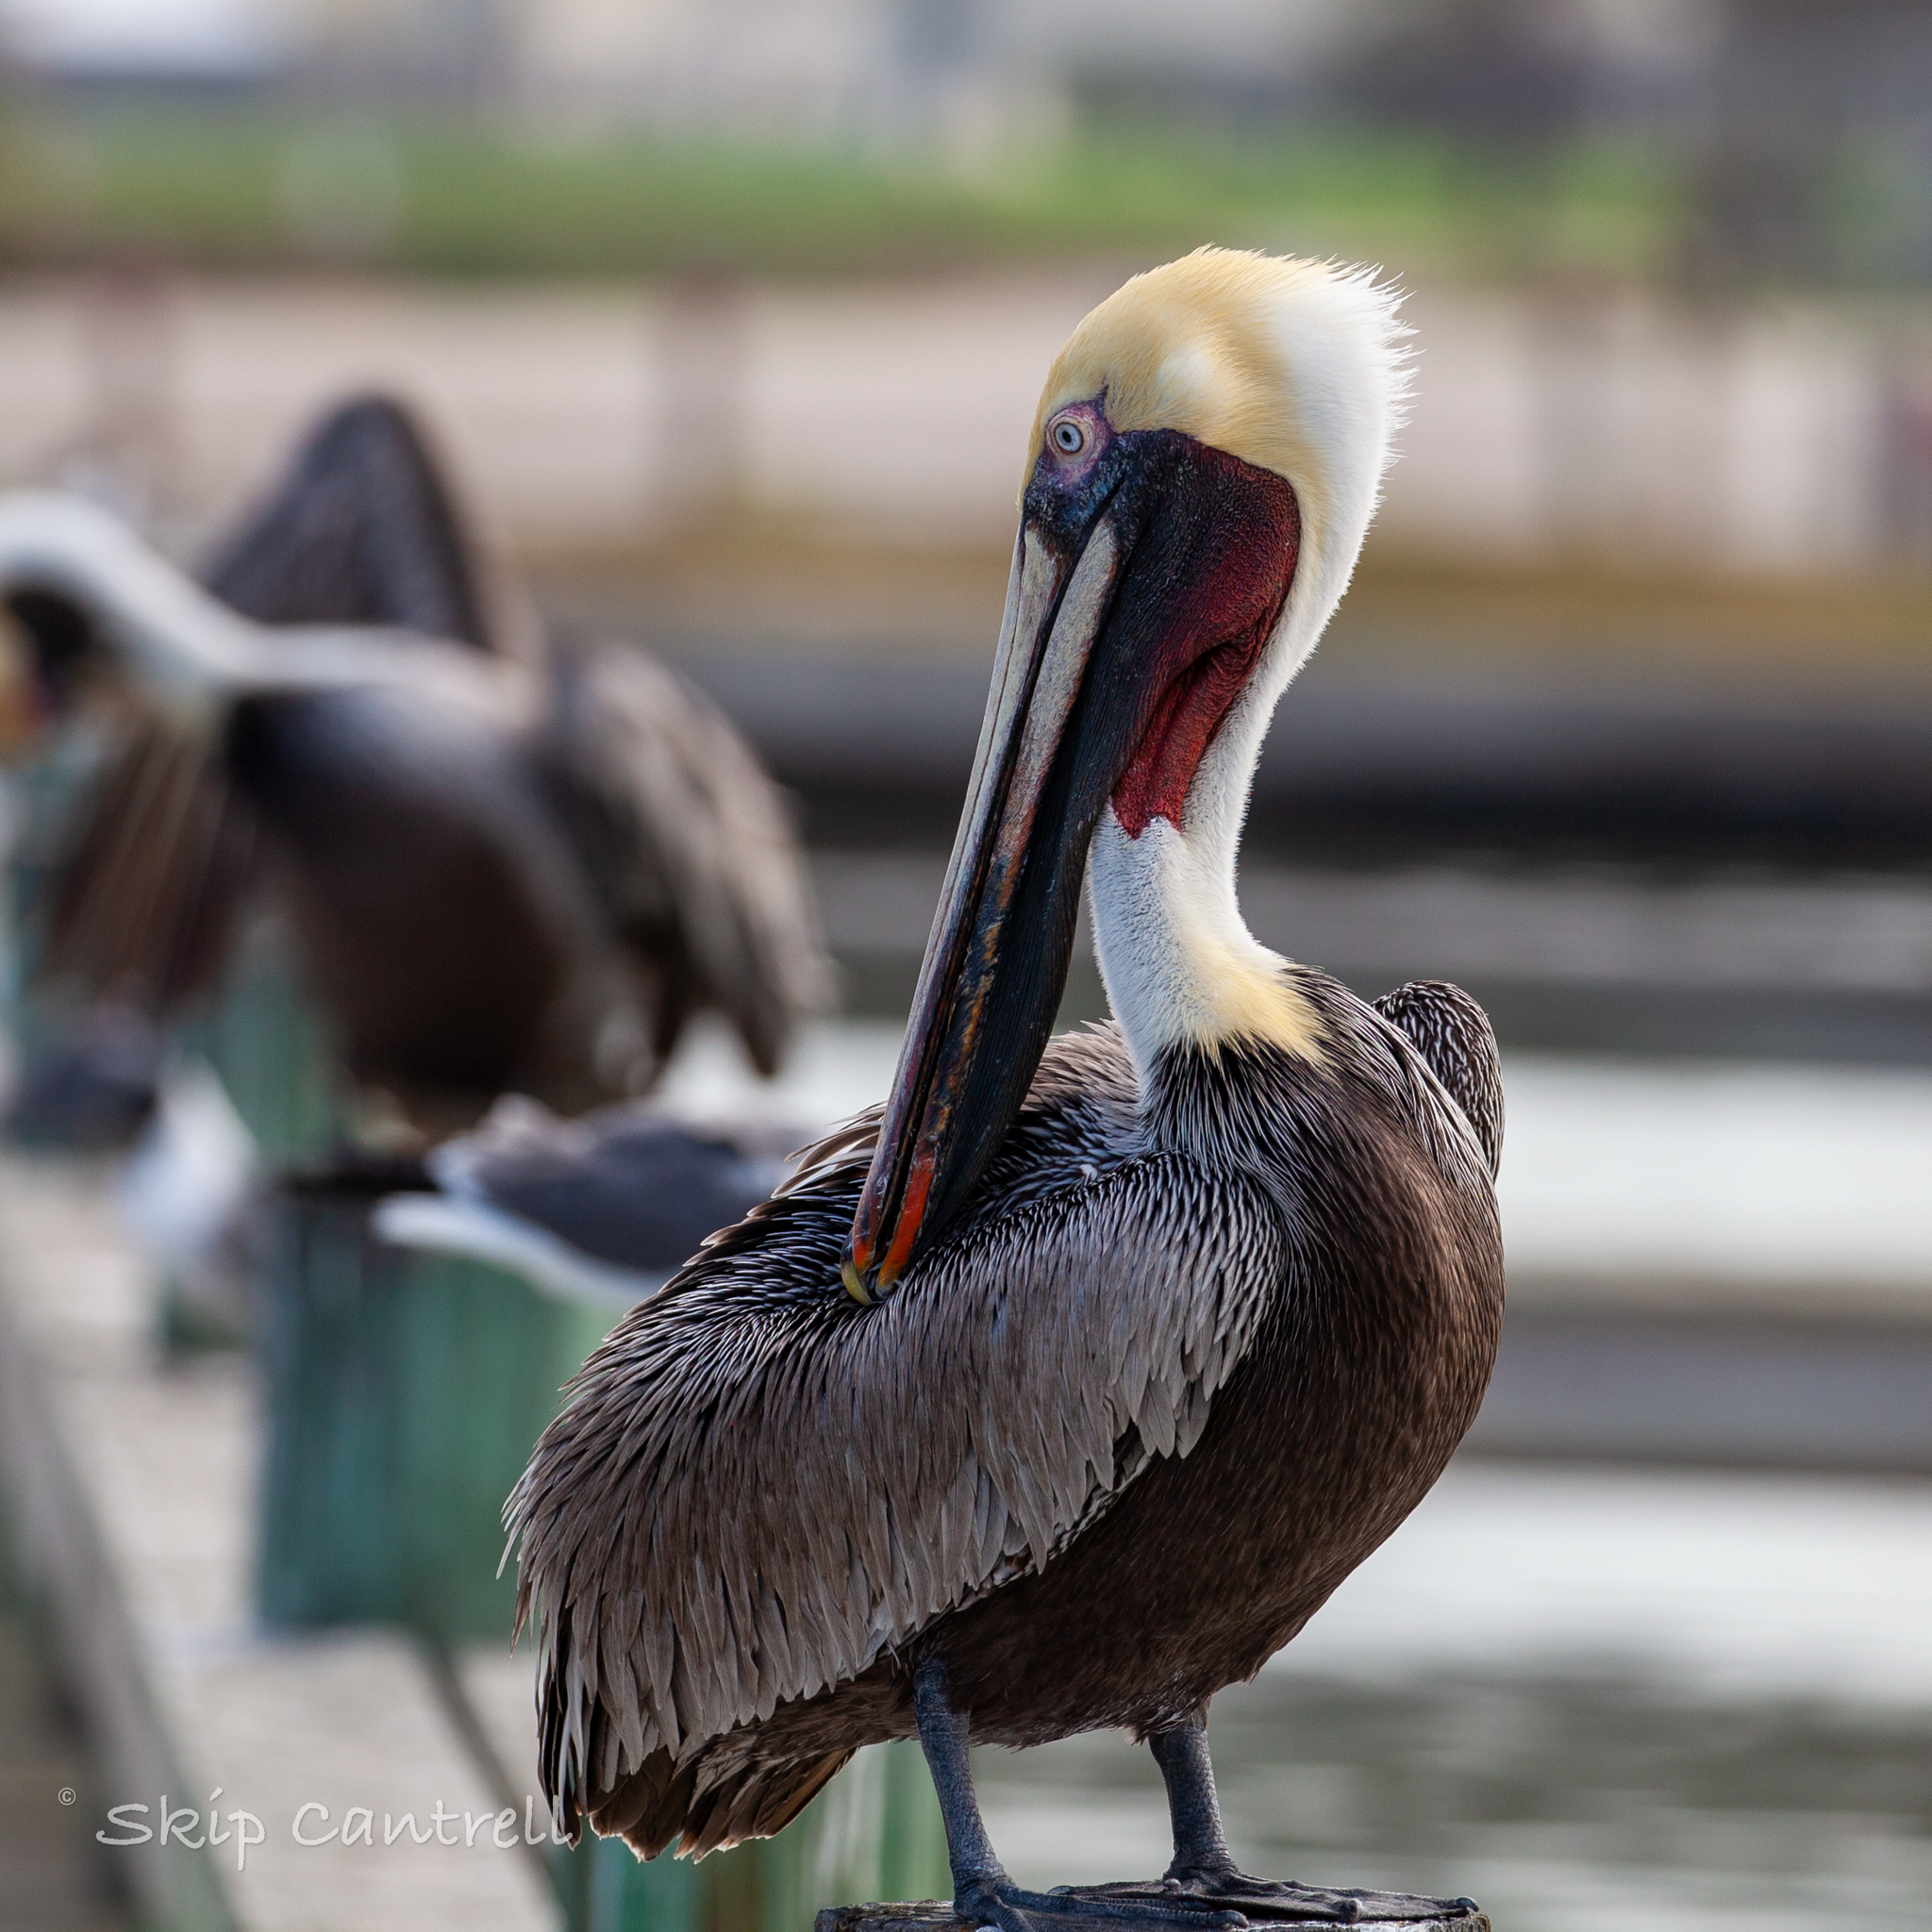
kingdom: Animalia
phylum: Chordata
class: Aves
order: Pelecaniformes
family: Pelecanidae
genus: Pelecanus
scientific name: Pelecanus occidentalis
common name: Brown pelican
